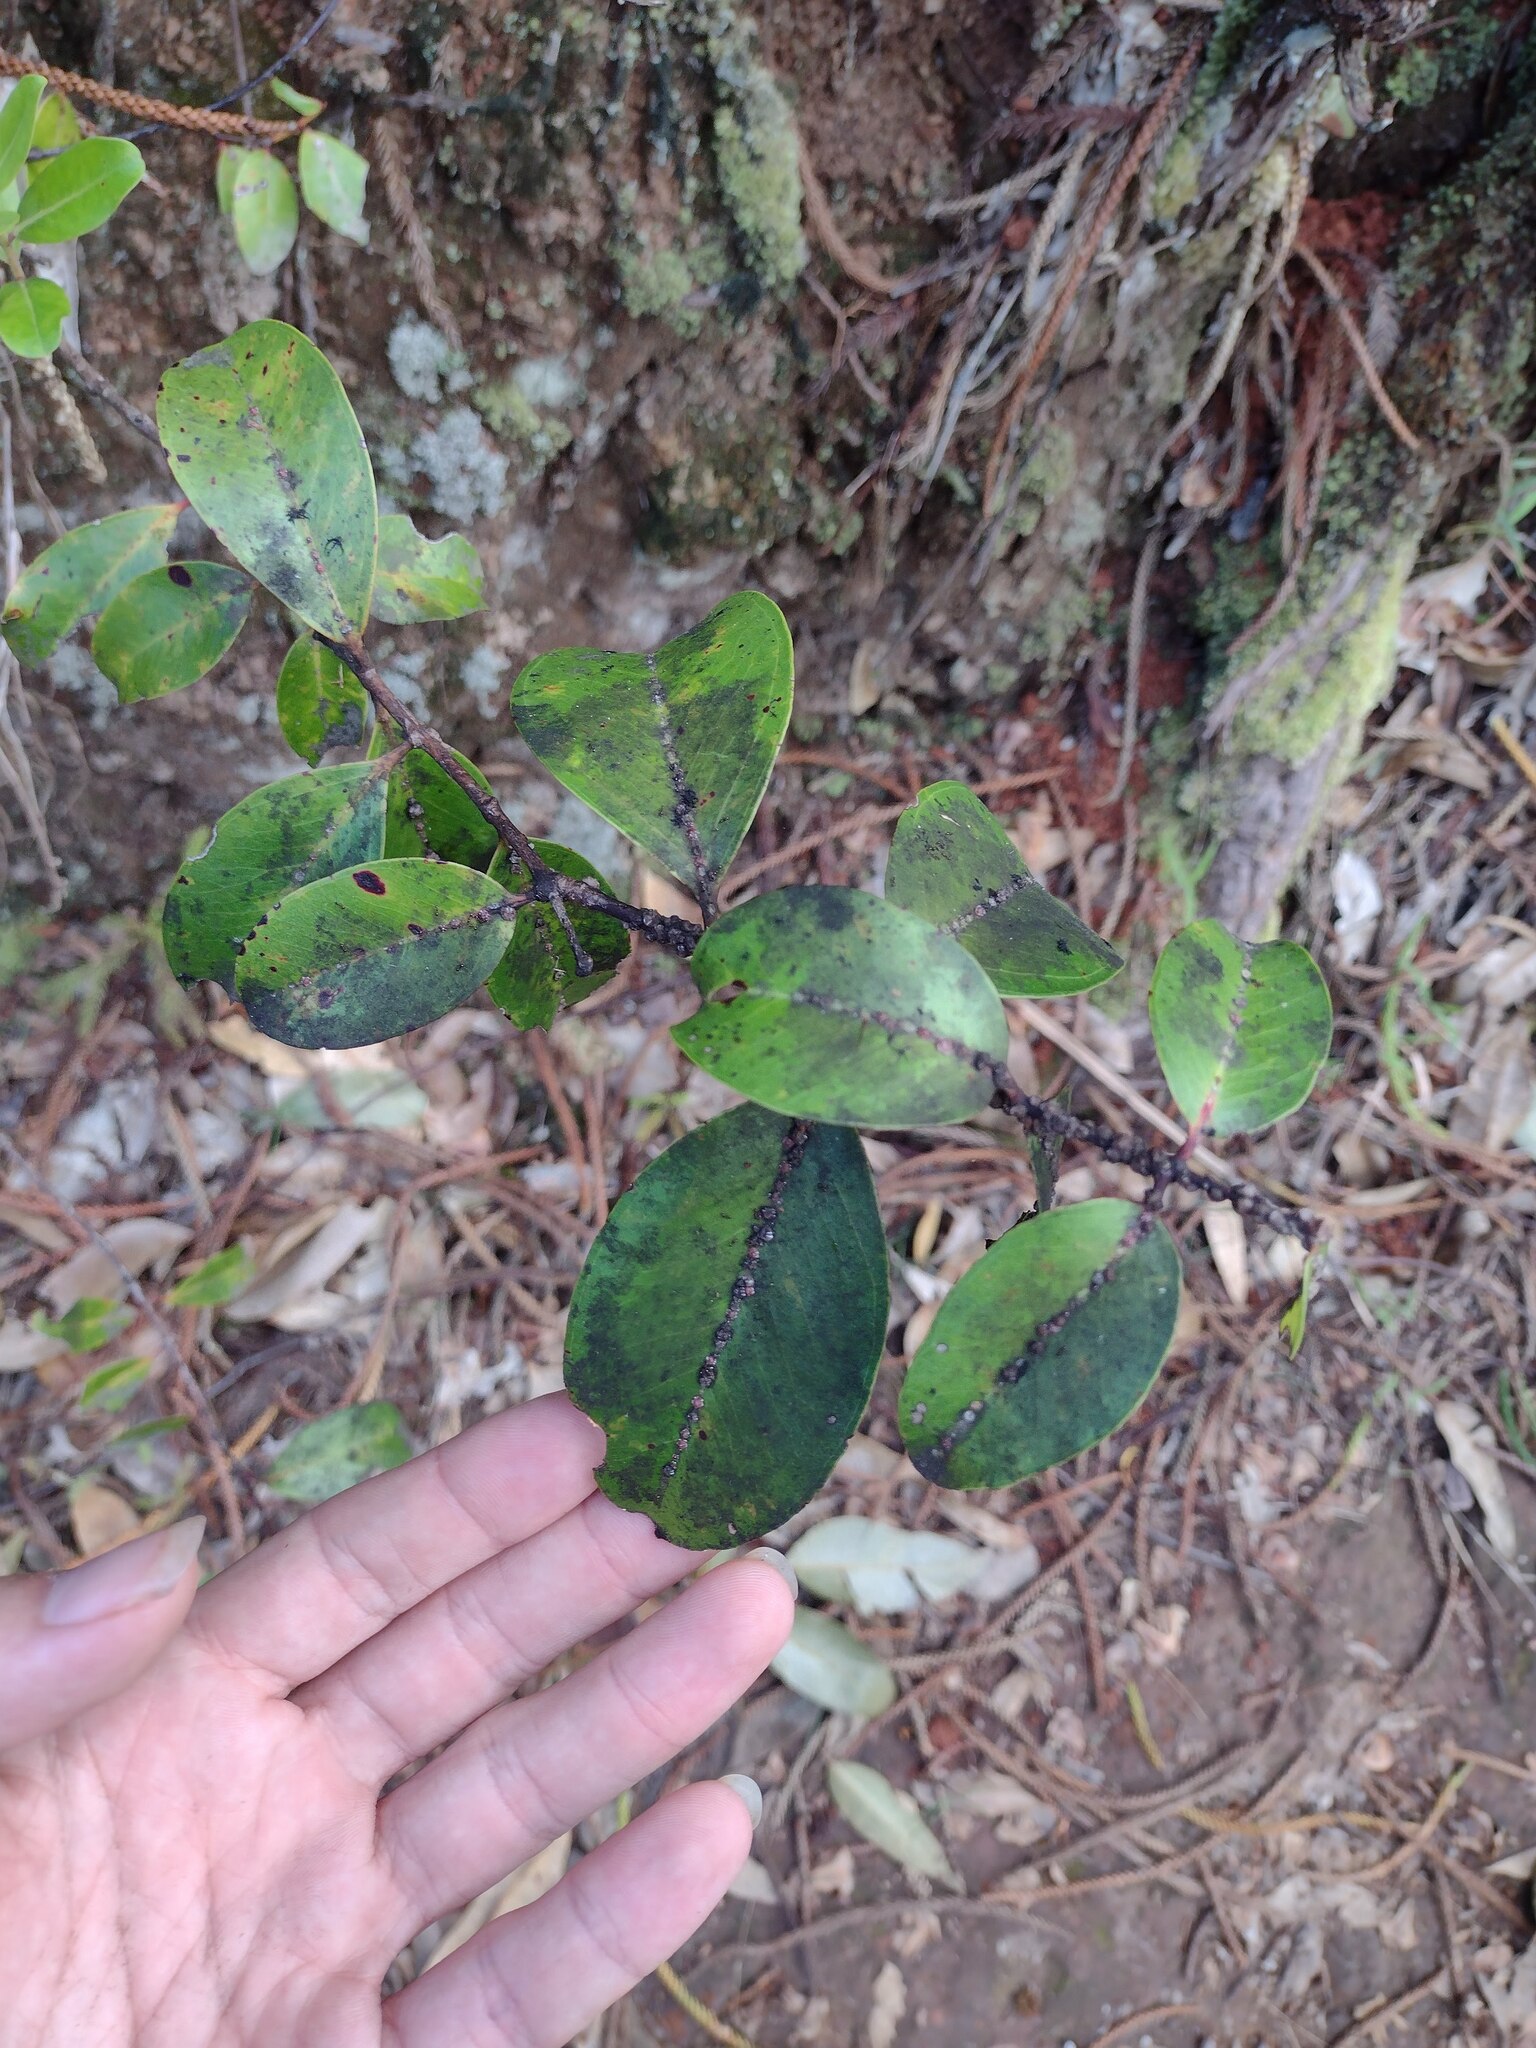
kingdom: Plantae
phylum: Tracheophyta
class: Magnoliopsida
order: Myrtales
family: Myrtaceae
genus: Metrosideros
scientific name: Metrosideros polymorpha
